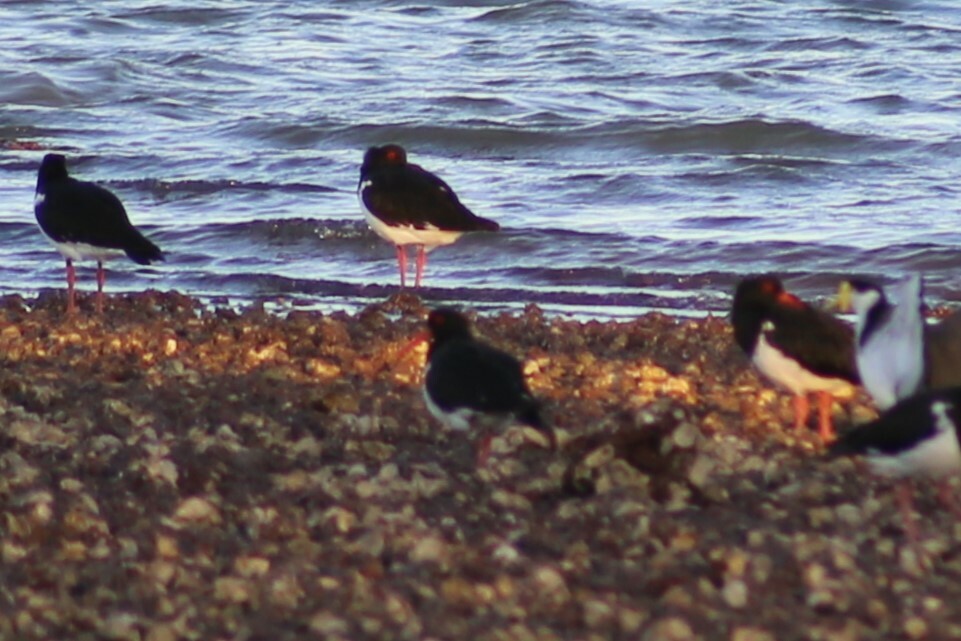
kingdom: Animalia
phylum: Chordata
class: Aves
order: Charadriiformes
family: Haematopodidae
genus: Haematopus
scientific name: Haematopus longirostris
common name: Pied oystercatcher
